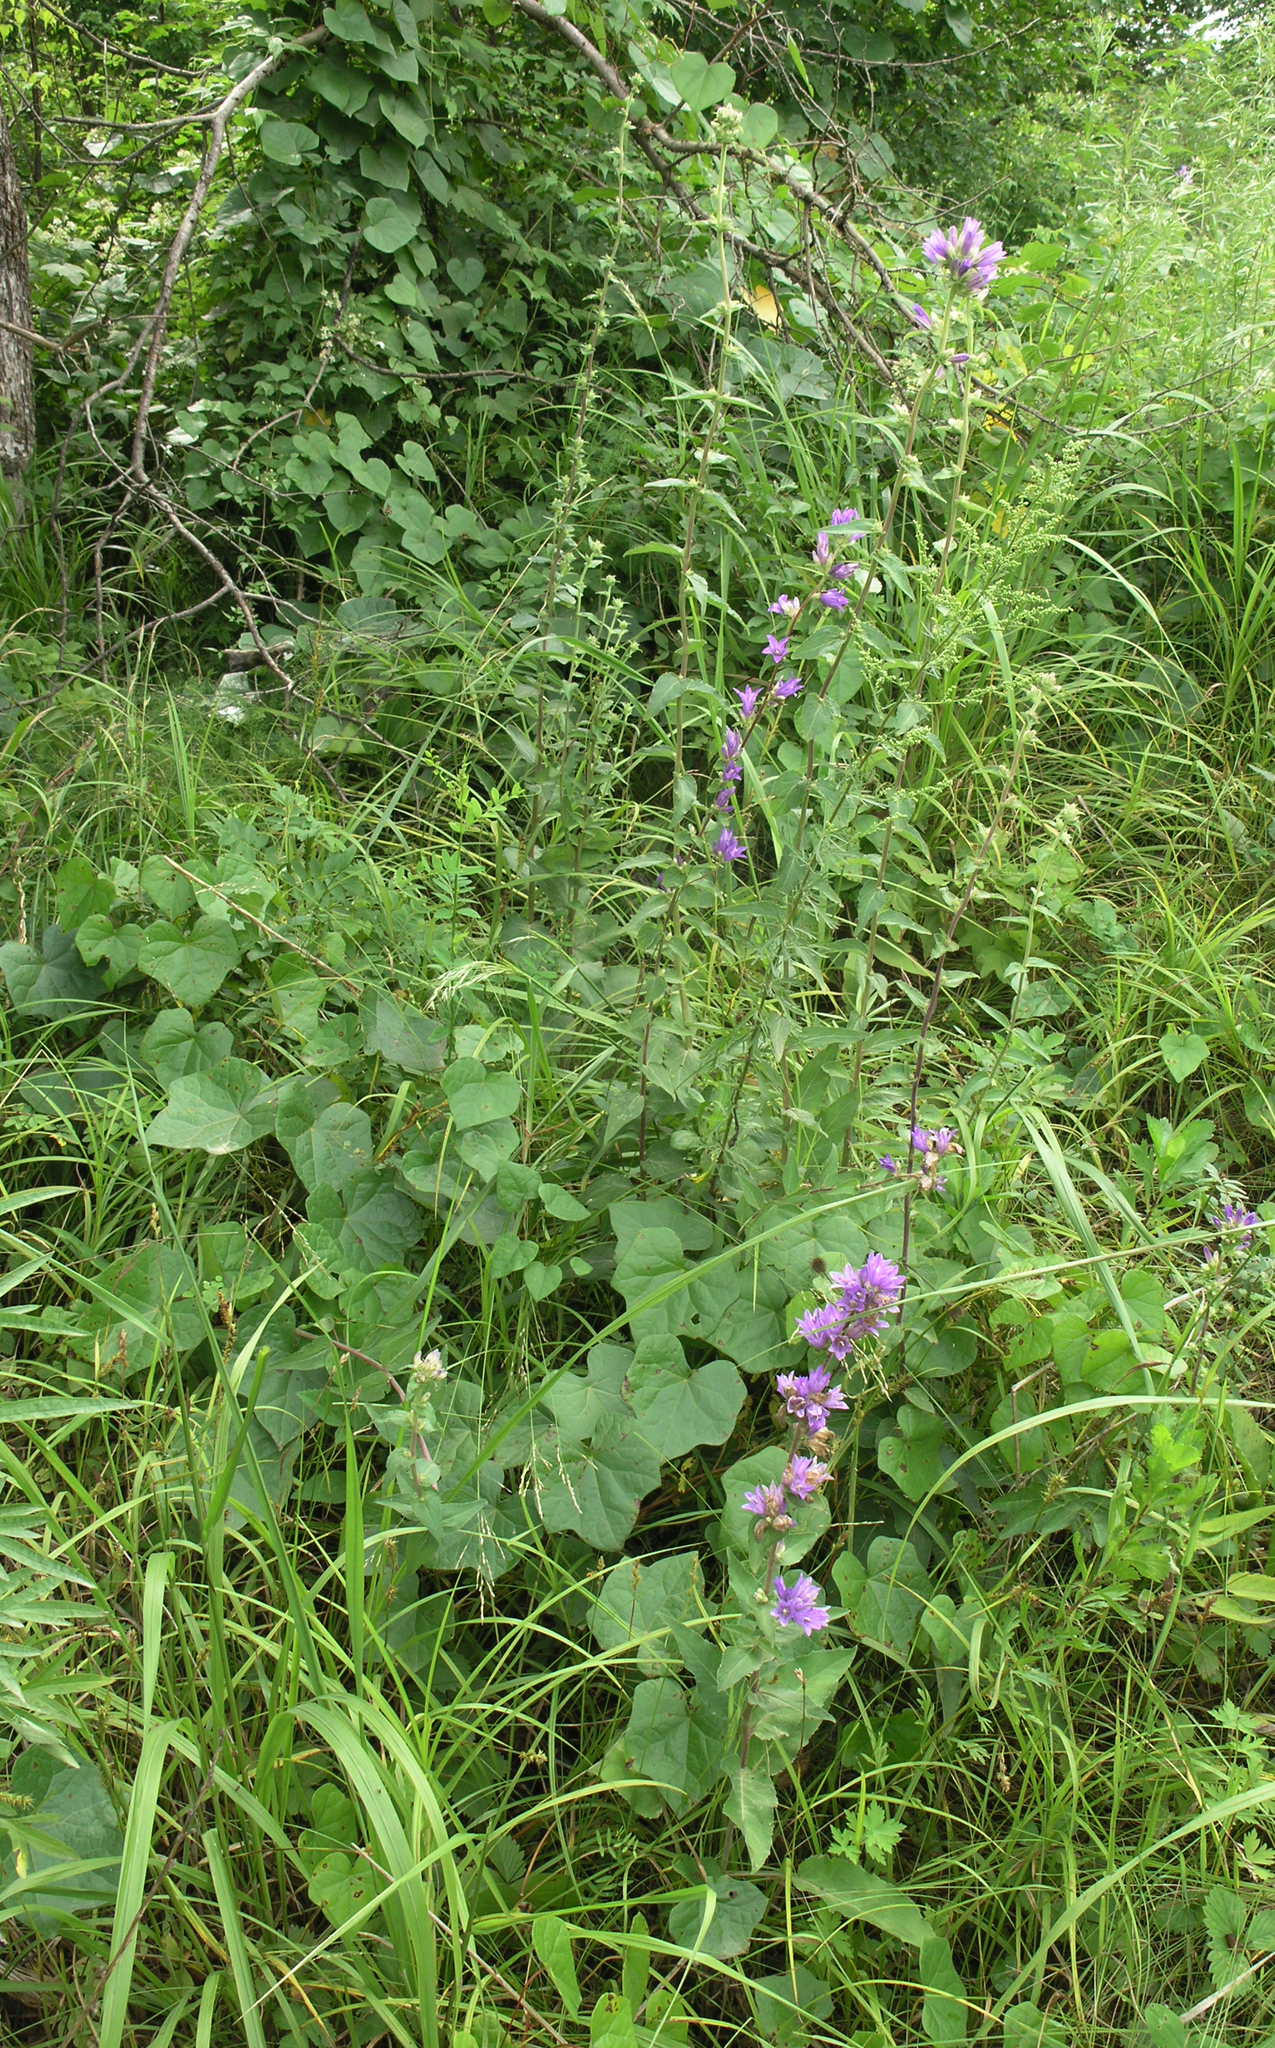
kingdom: Plantae
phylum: Tracheophyta
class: Magnoliopsida
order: Asterales
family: Campanulaceae
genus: Campanula
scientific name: Campanula glomerata
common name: Clustered bellflower
